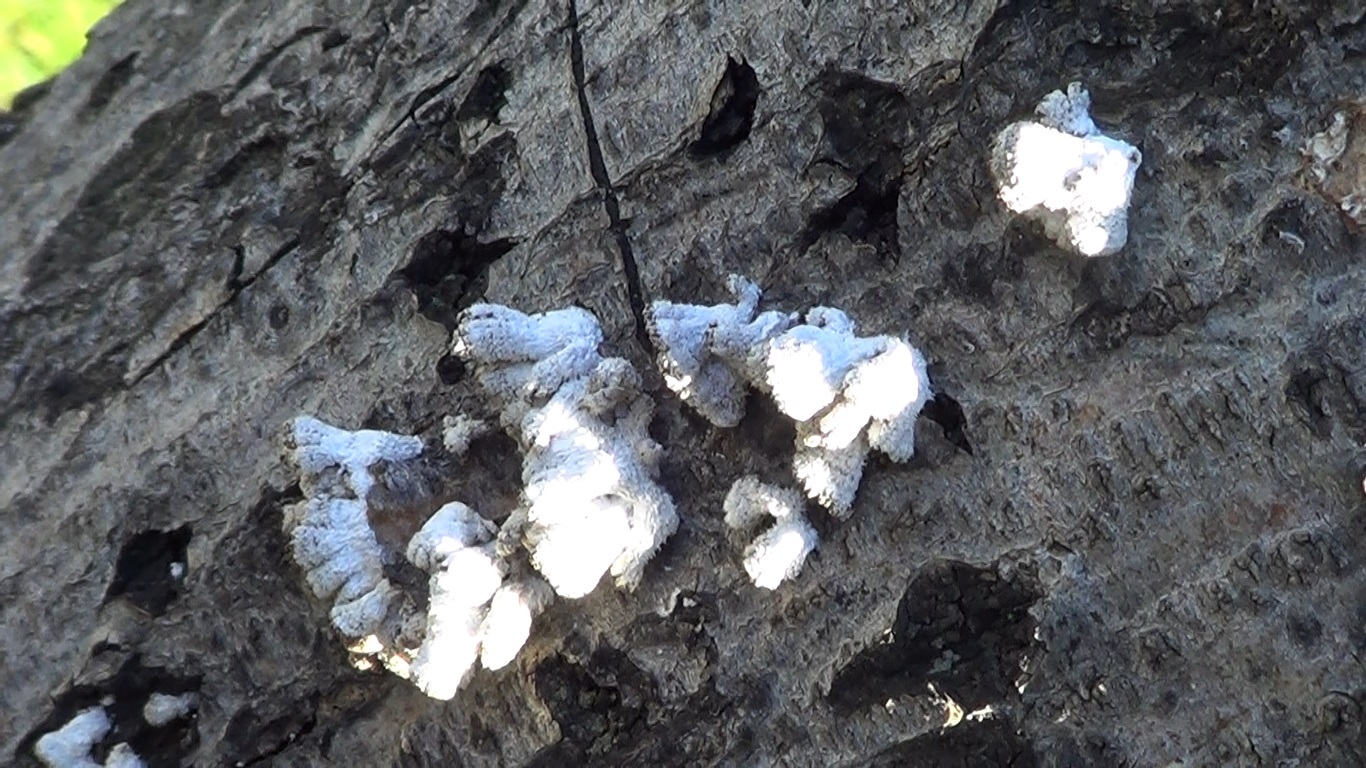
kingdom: Fungi
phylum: Basidiomycota
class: Agaricomycetes
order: Agaricales
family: Schizophyllaceae
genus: Schizophyllum
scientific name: Schizophyllum commune
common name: Common porecrust
